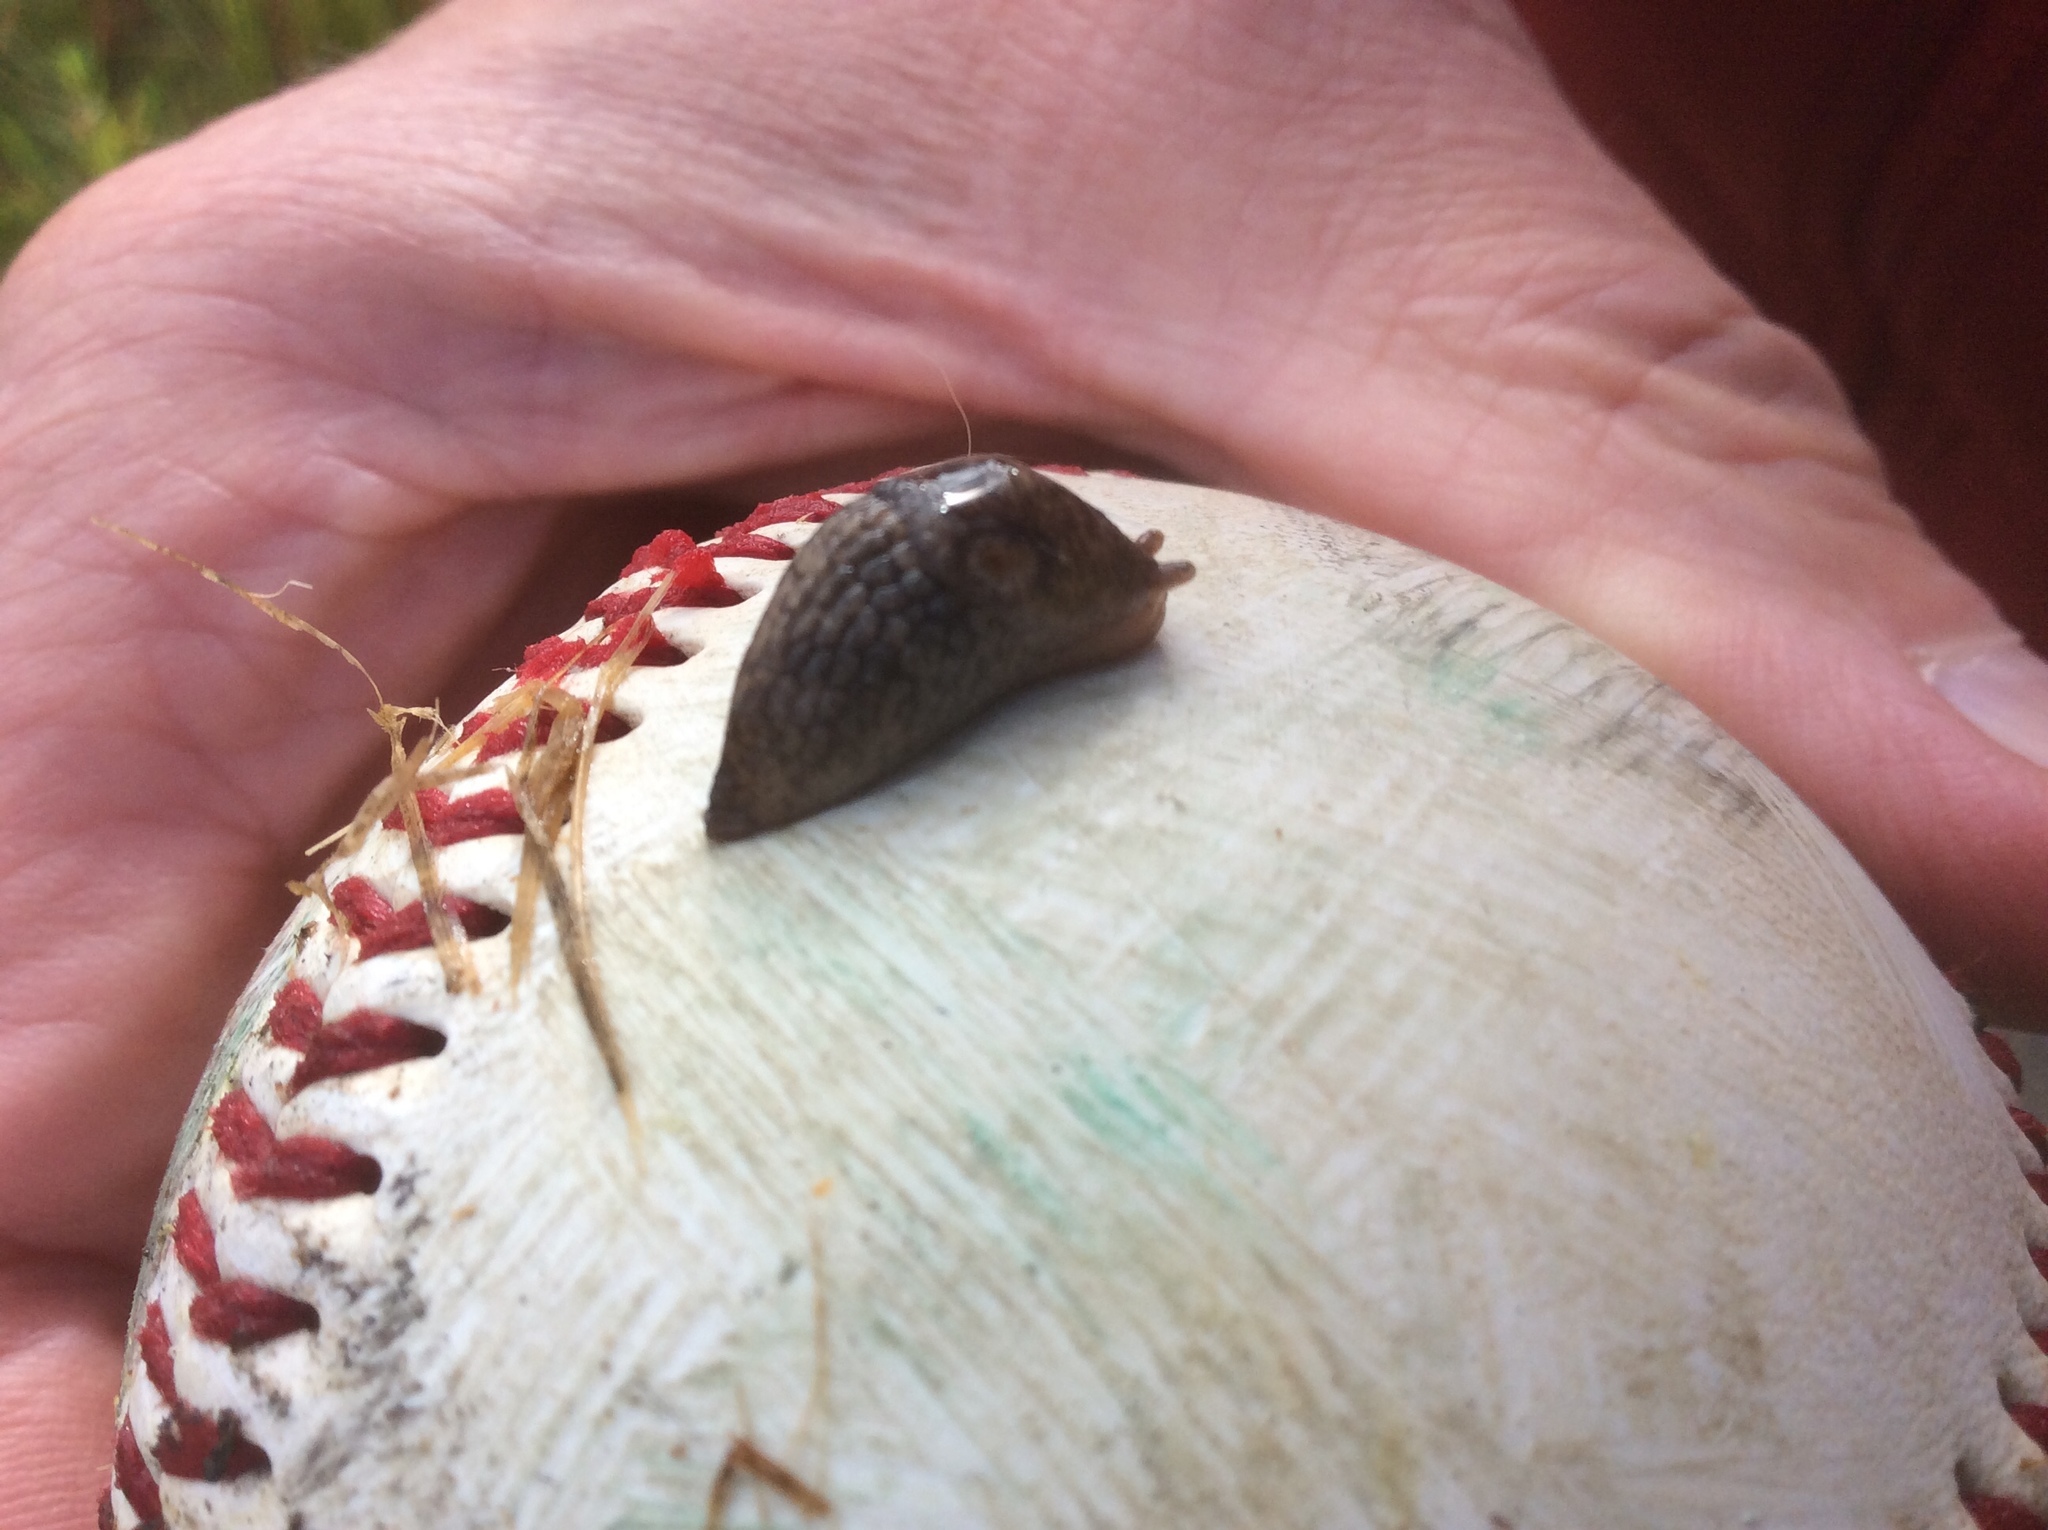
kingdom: Animalia
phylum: Mollusca
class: Gastropoda
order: Stylommatophora
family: Agriolimacidae
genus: Deroceras
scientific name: Deroceras reticulatum
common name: Gray field slug
